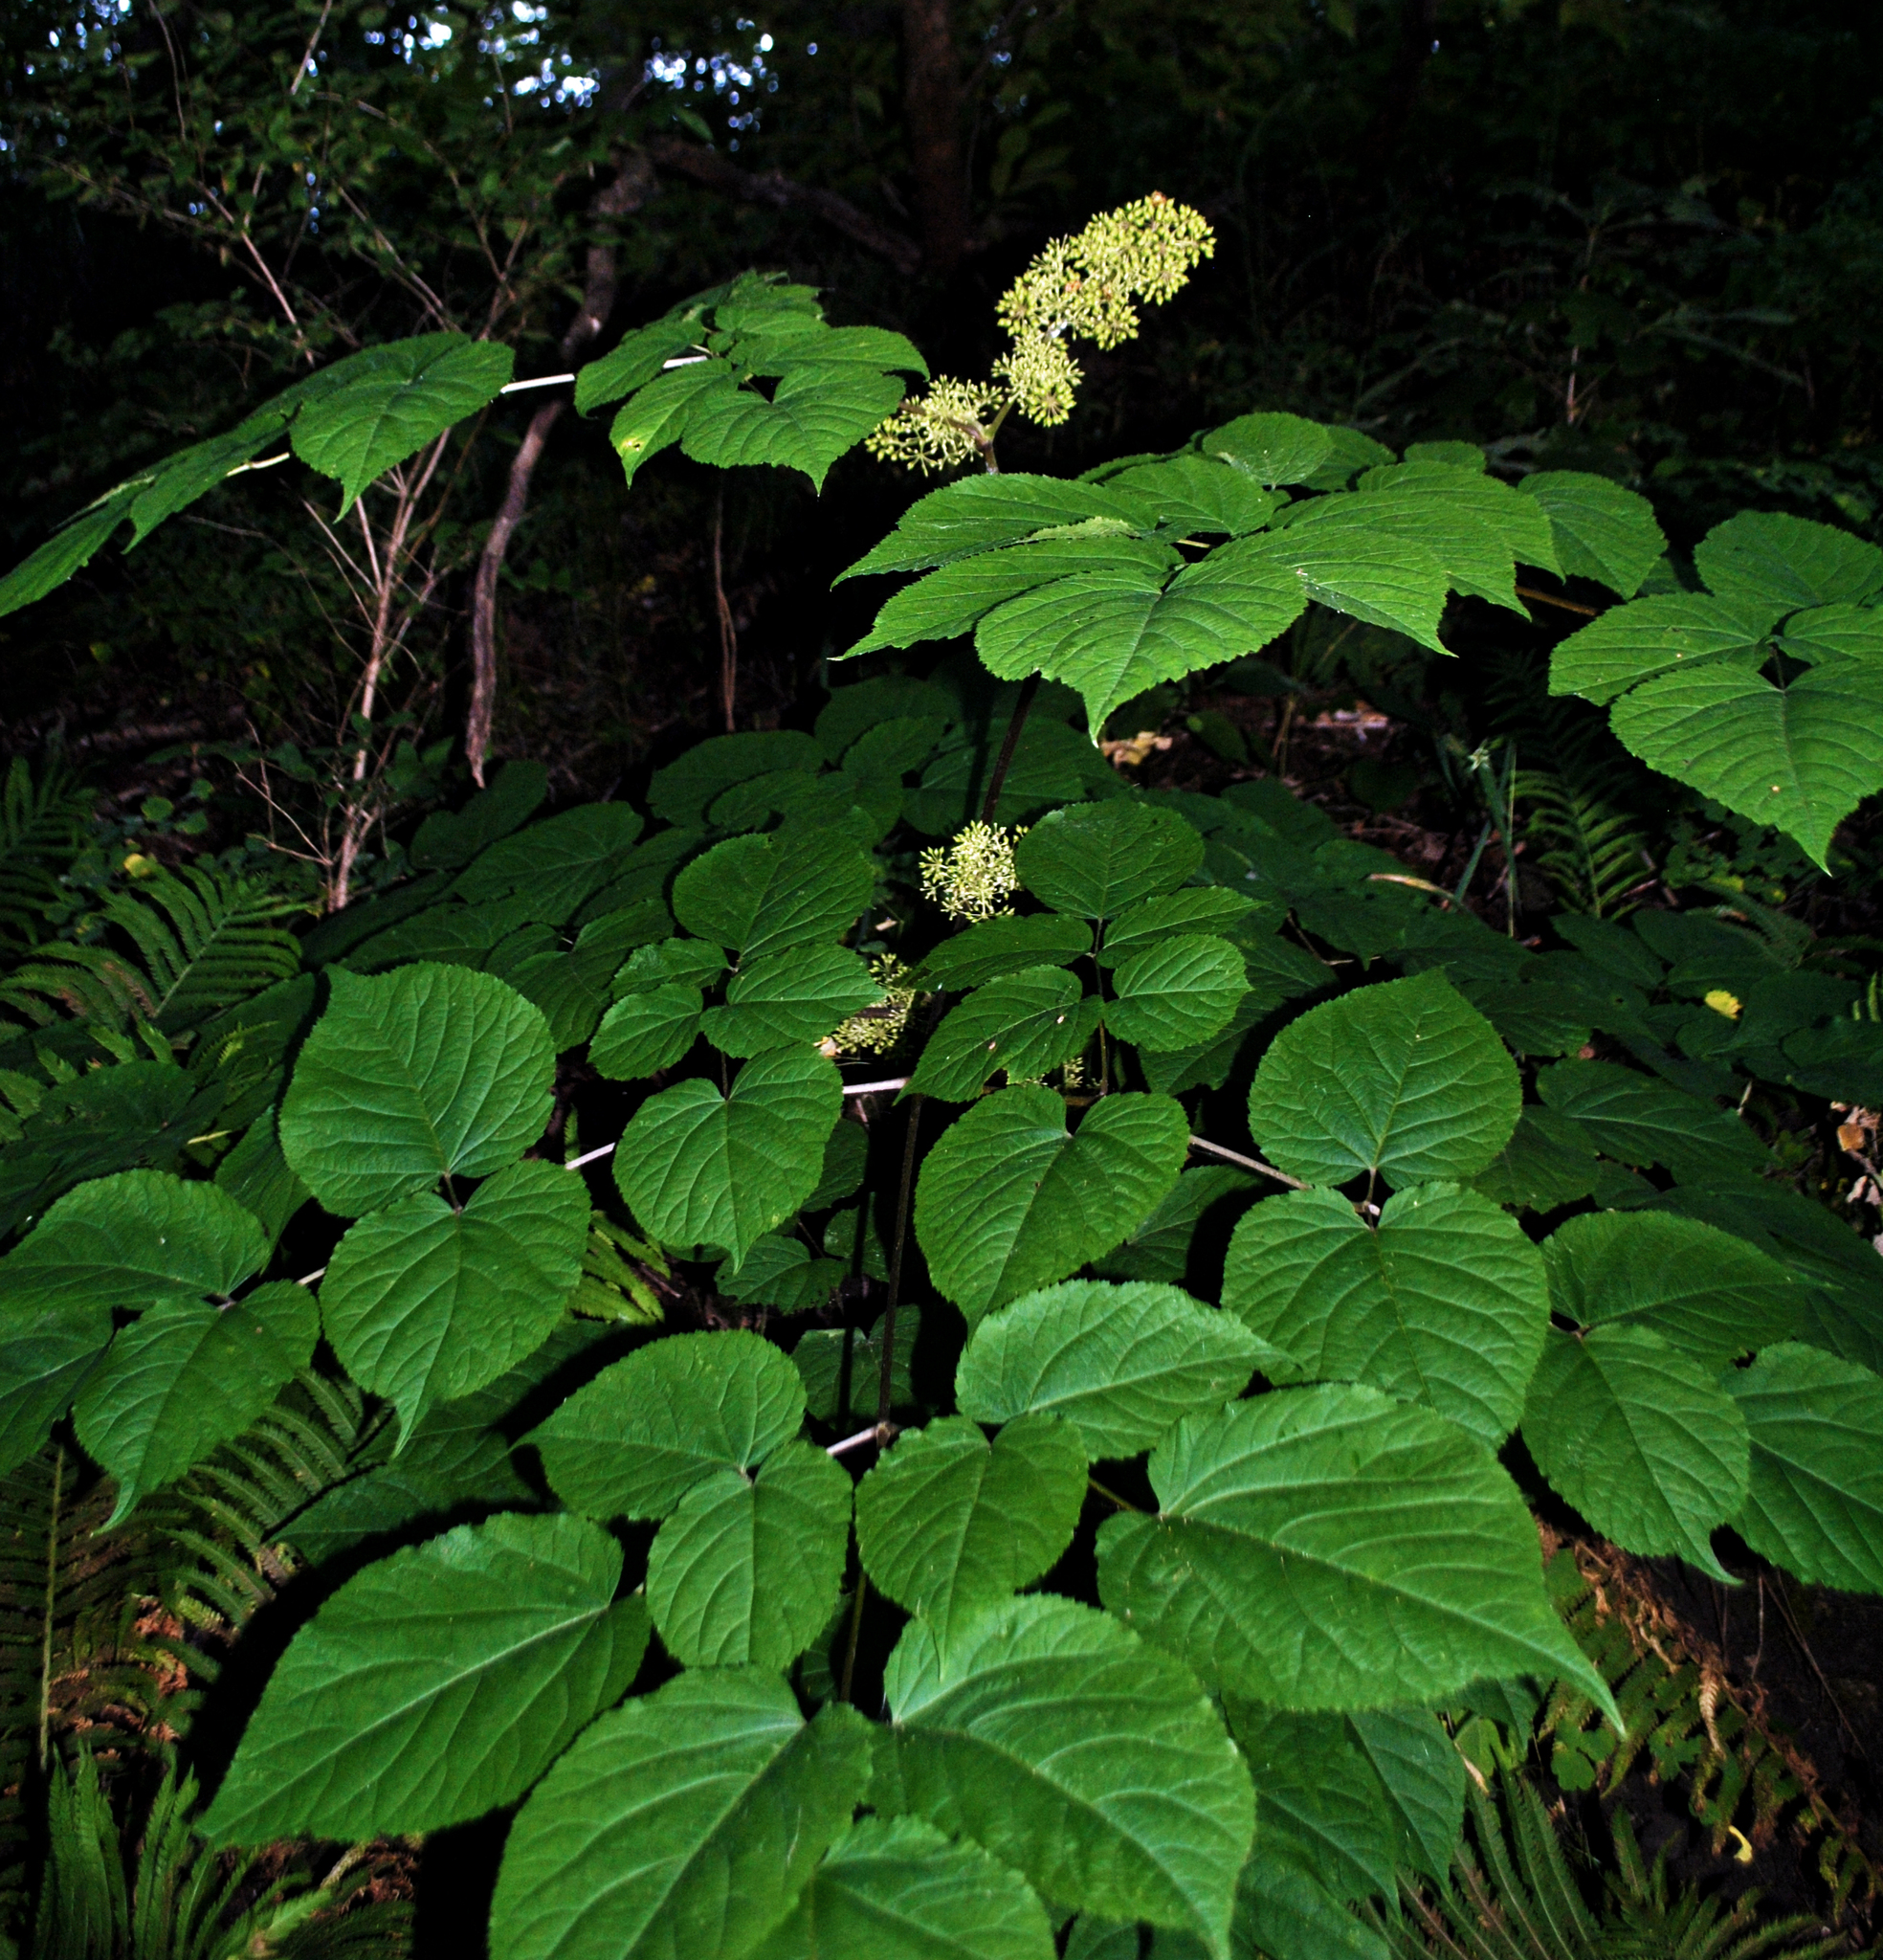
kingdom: Plantae
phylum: Tracheophyta
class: Magnoliopsida
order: Apiales
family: Araliaceae
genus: Aralia
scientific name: Aralia racemosa
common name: American-spikenard
